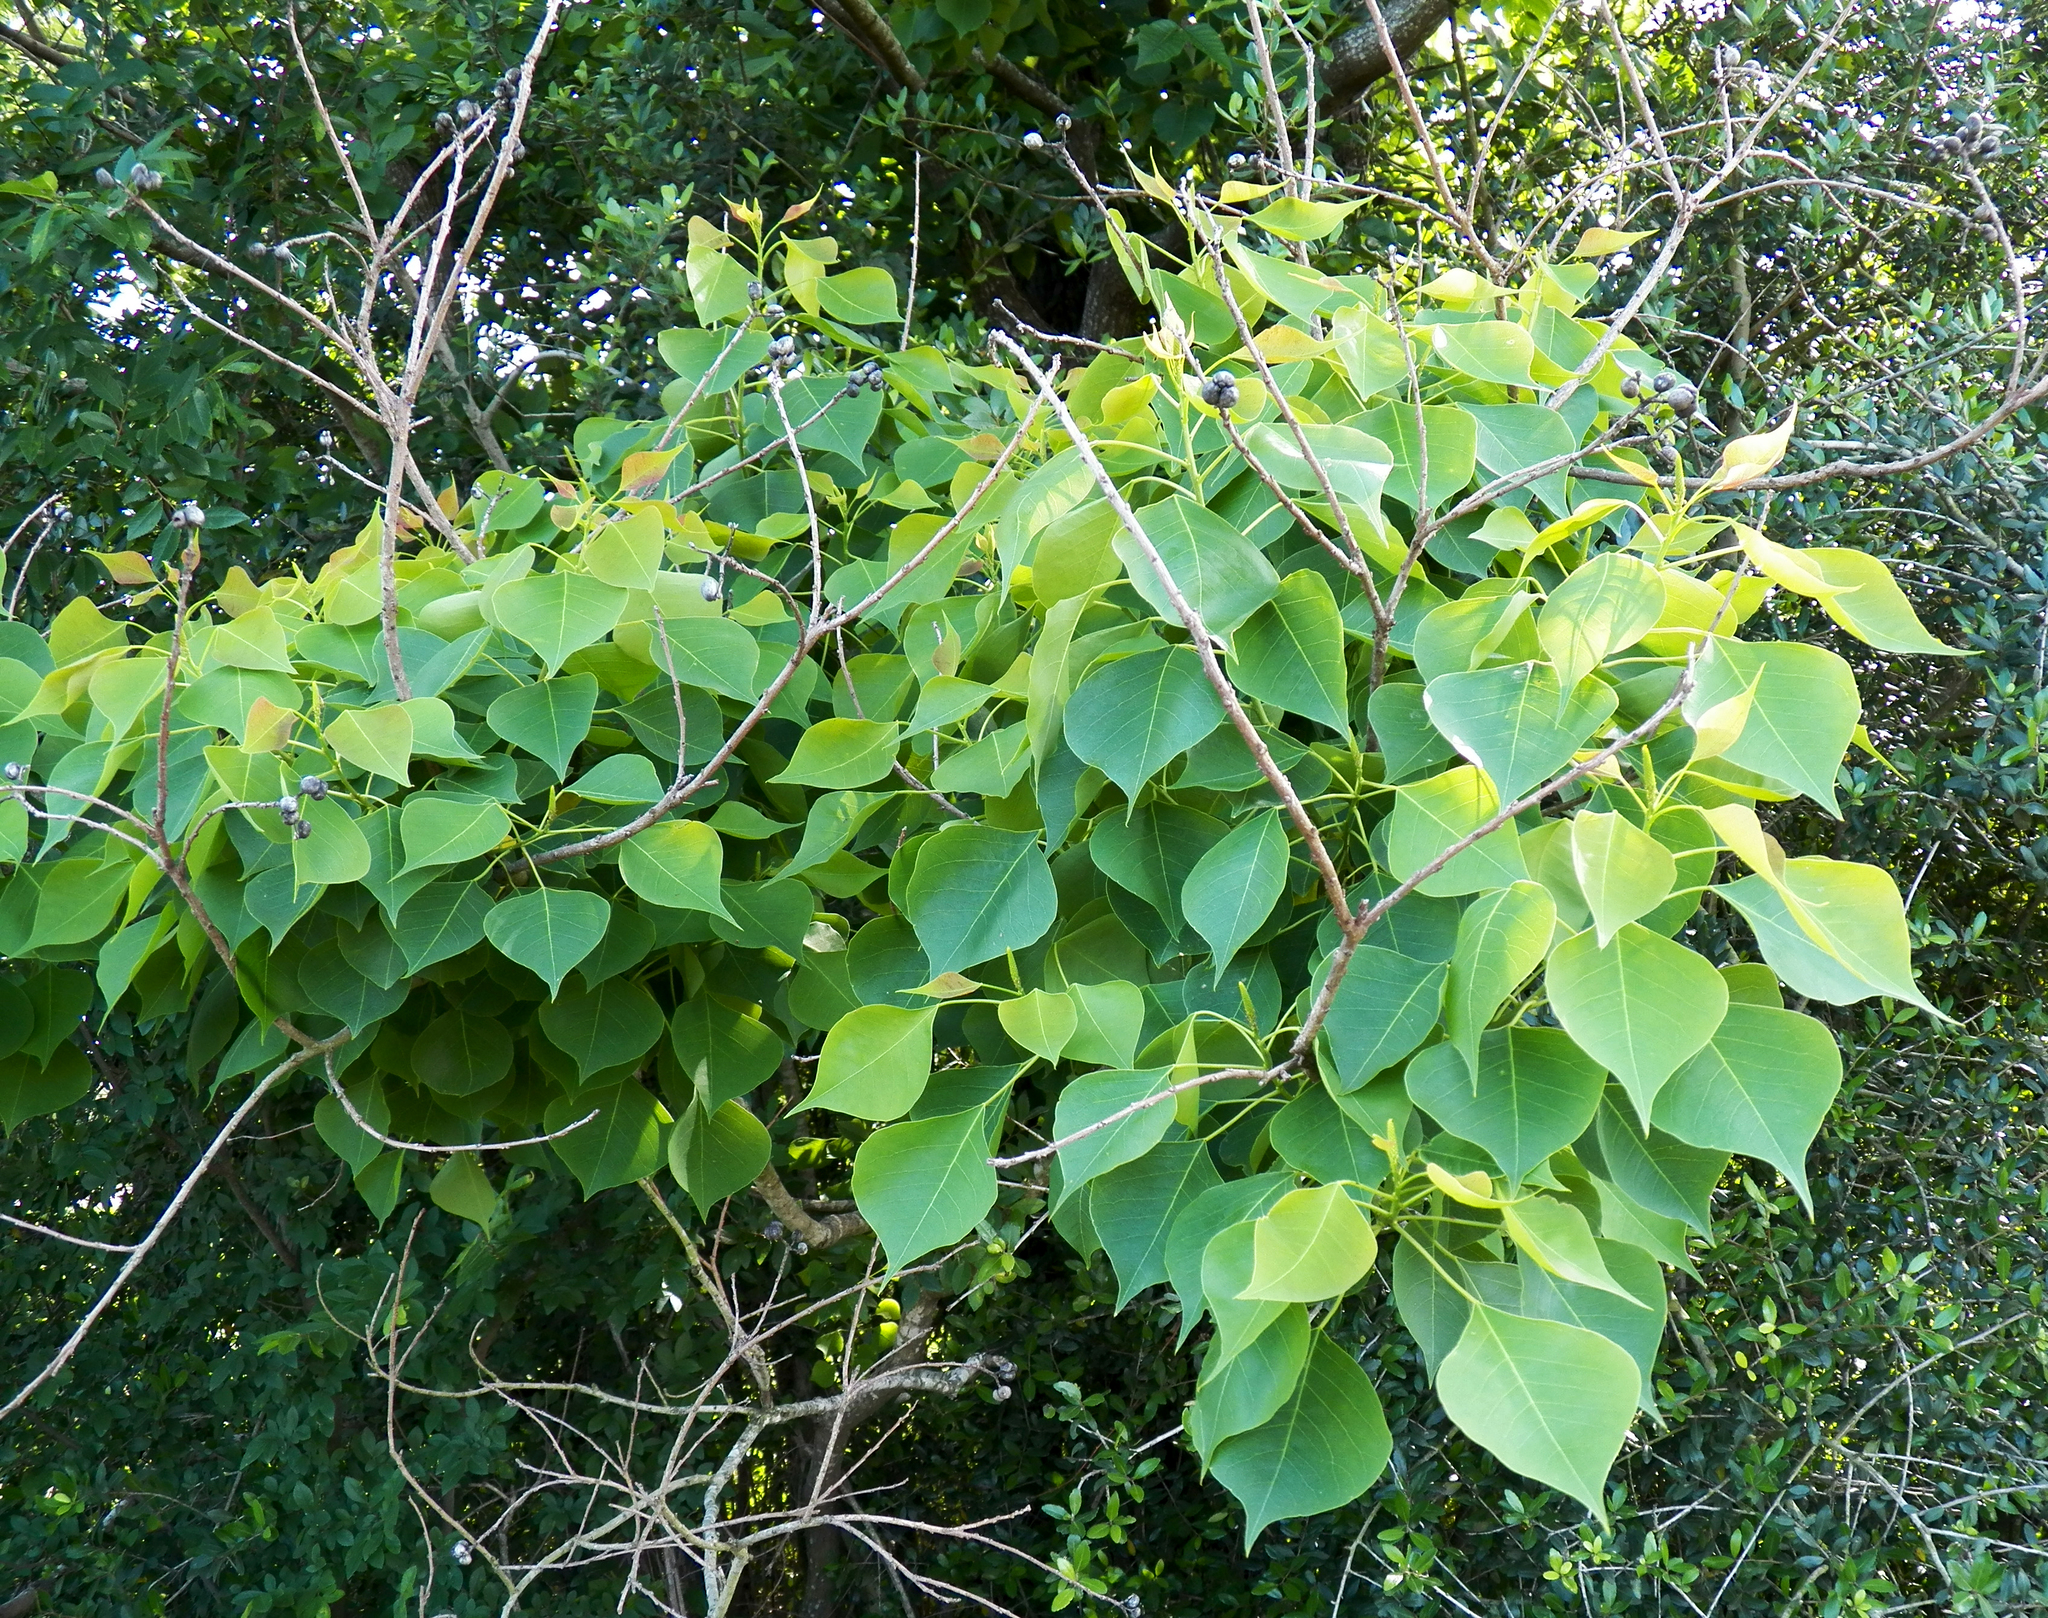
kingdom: Plantae
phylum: Tracheophyta
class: Magnoliopsida
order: Malpighiales
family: Euphorbiaceae
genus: Triadica
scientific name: Triadica sebifera
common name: Chinese tallow
